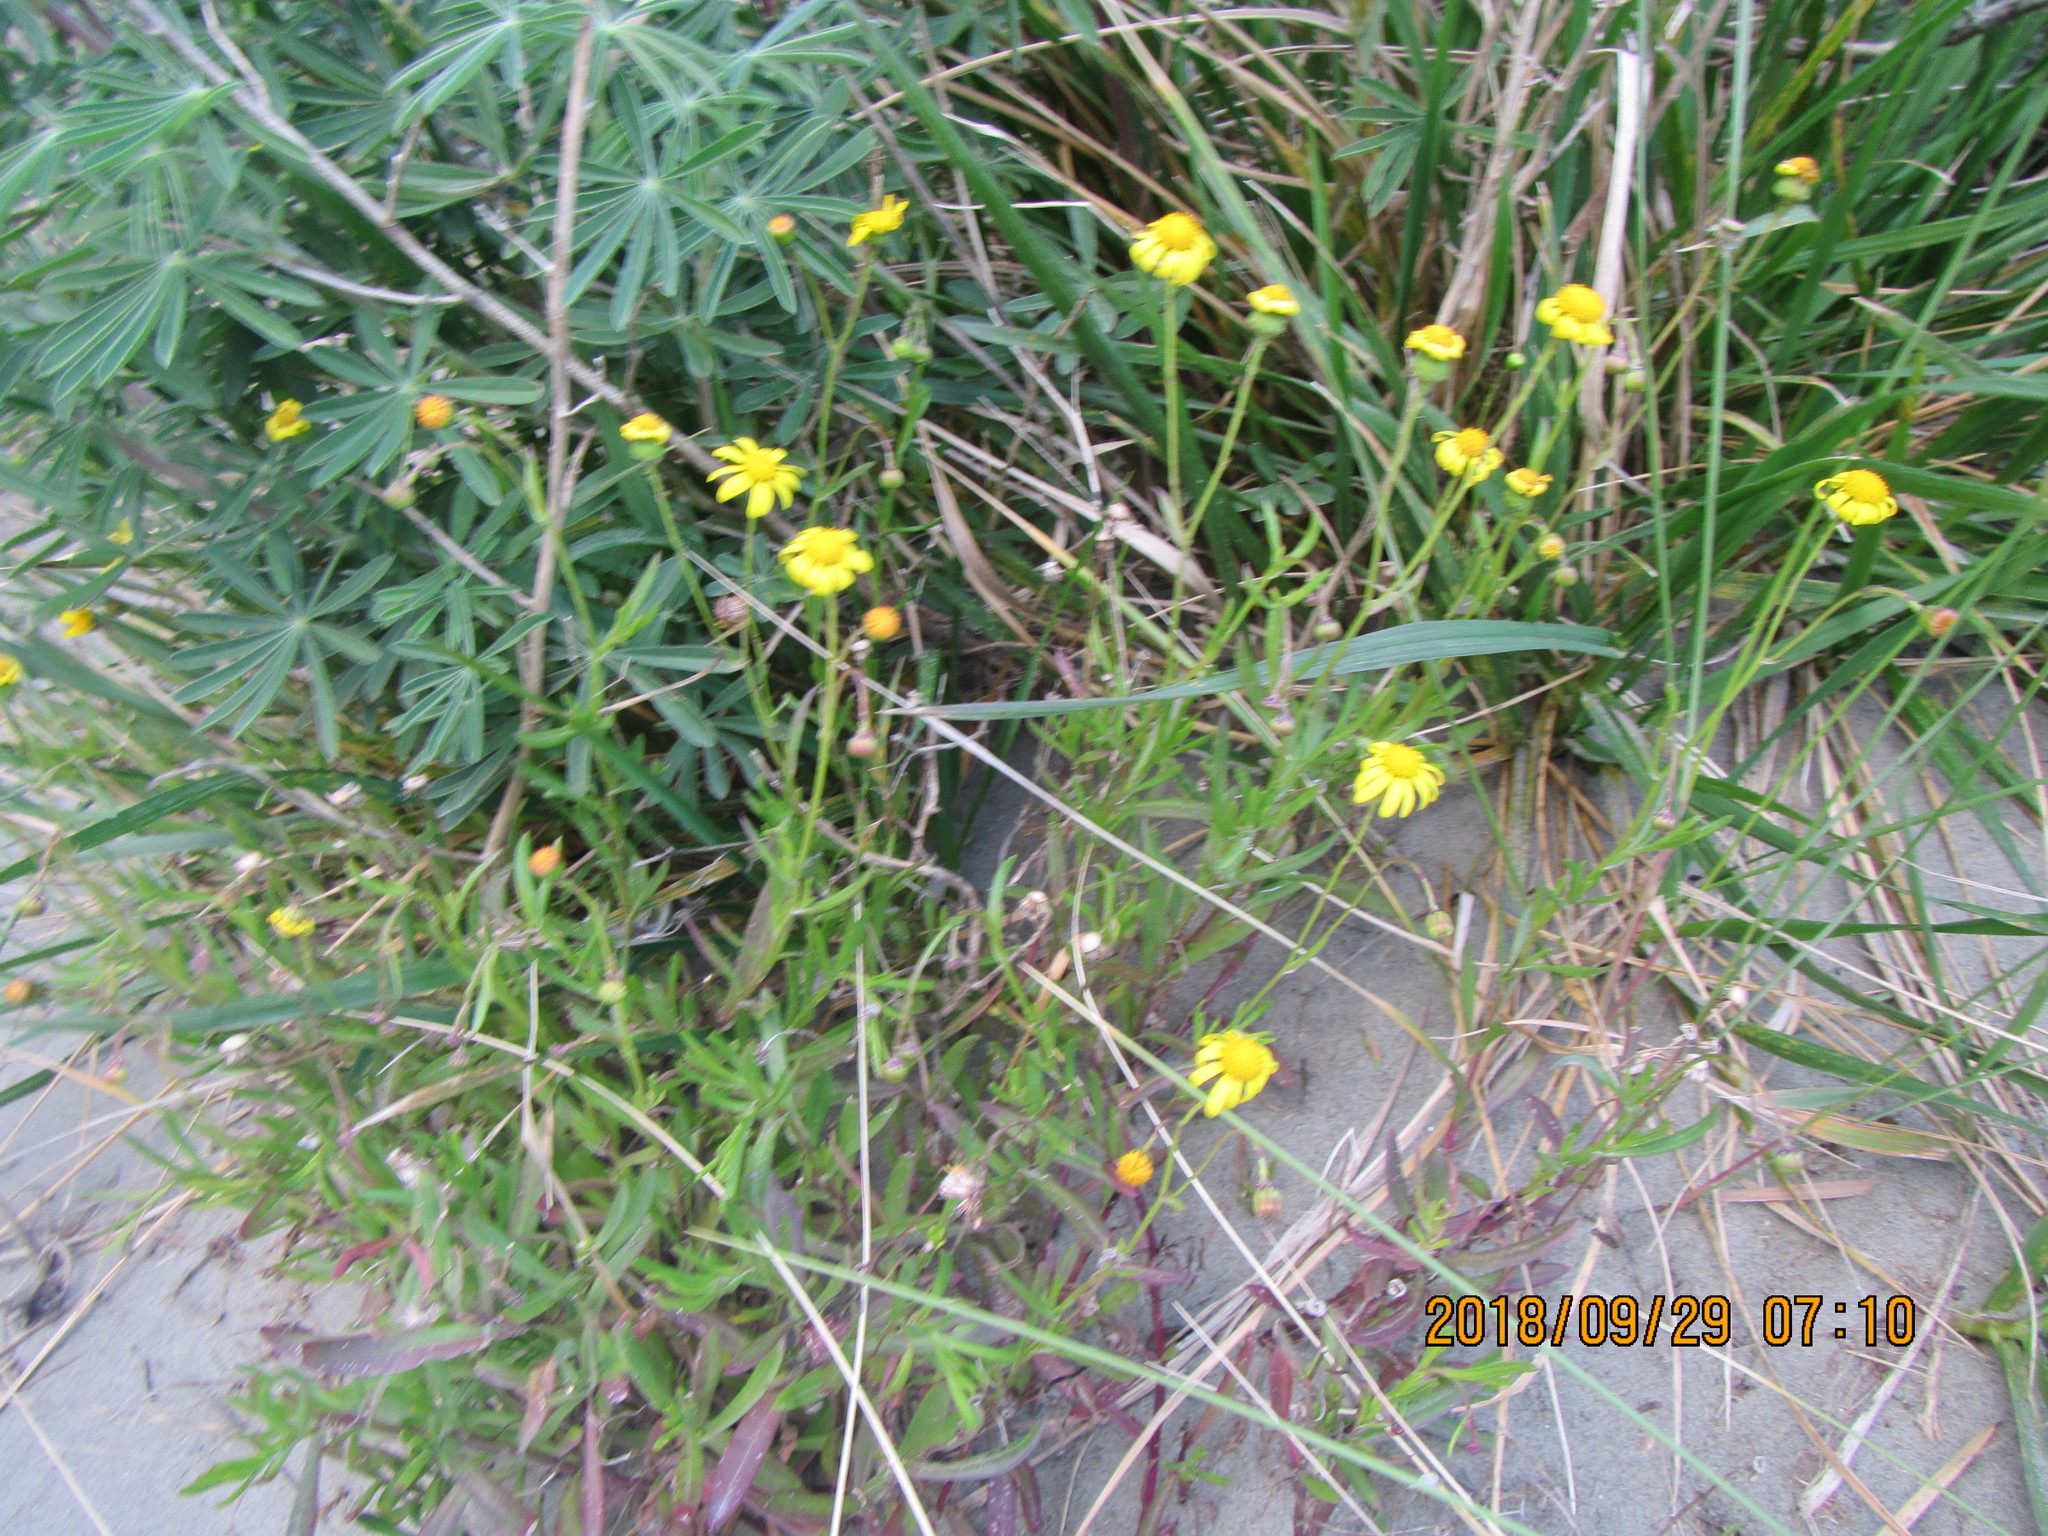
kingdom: Plantae
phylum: Tracheophyta
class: Magnoliopsida
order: Asterales
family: Asteraceae
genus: Senecio
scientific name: Senecio skirrhodon
